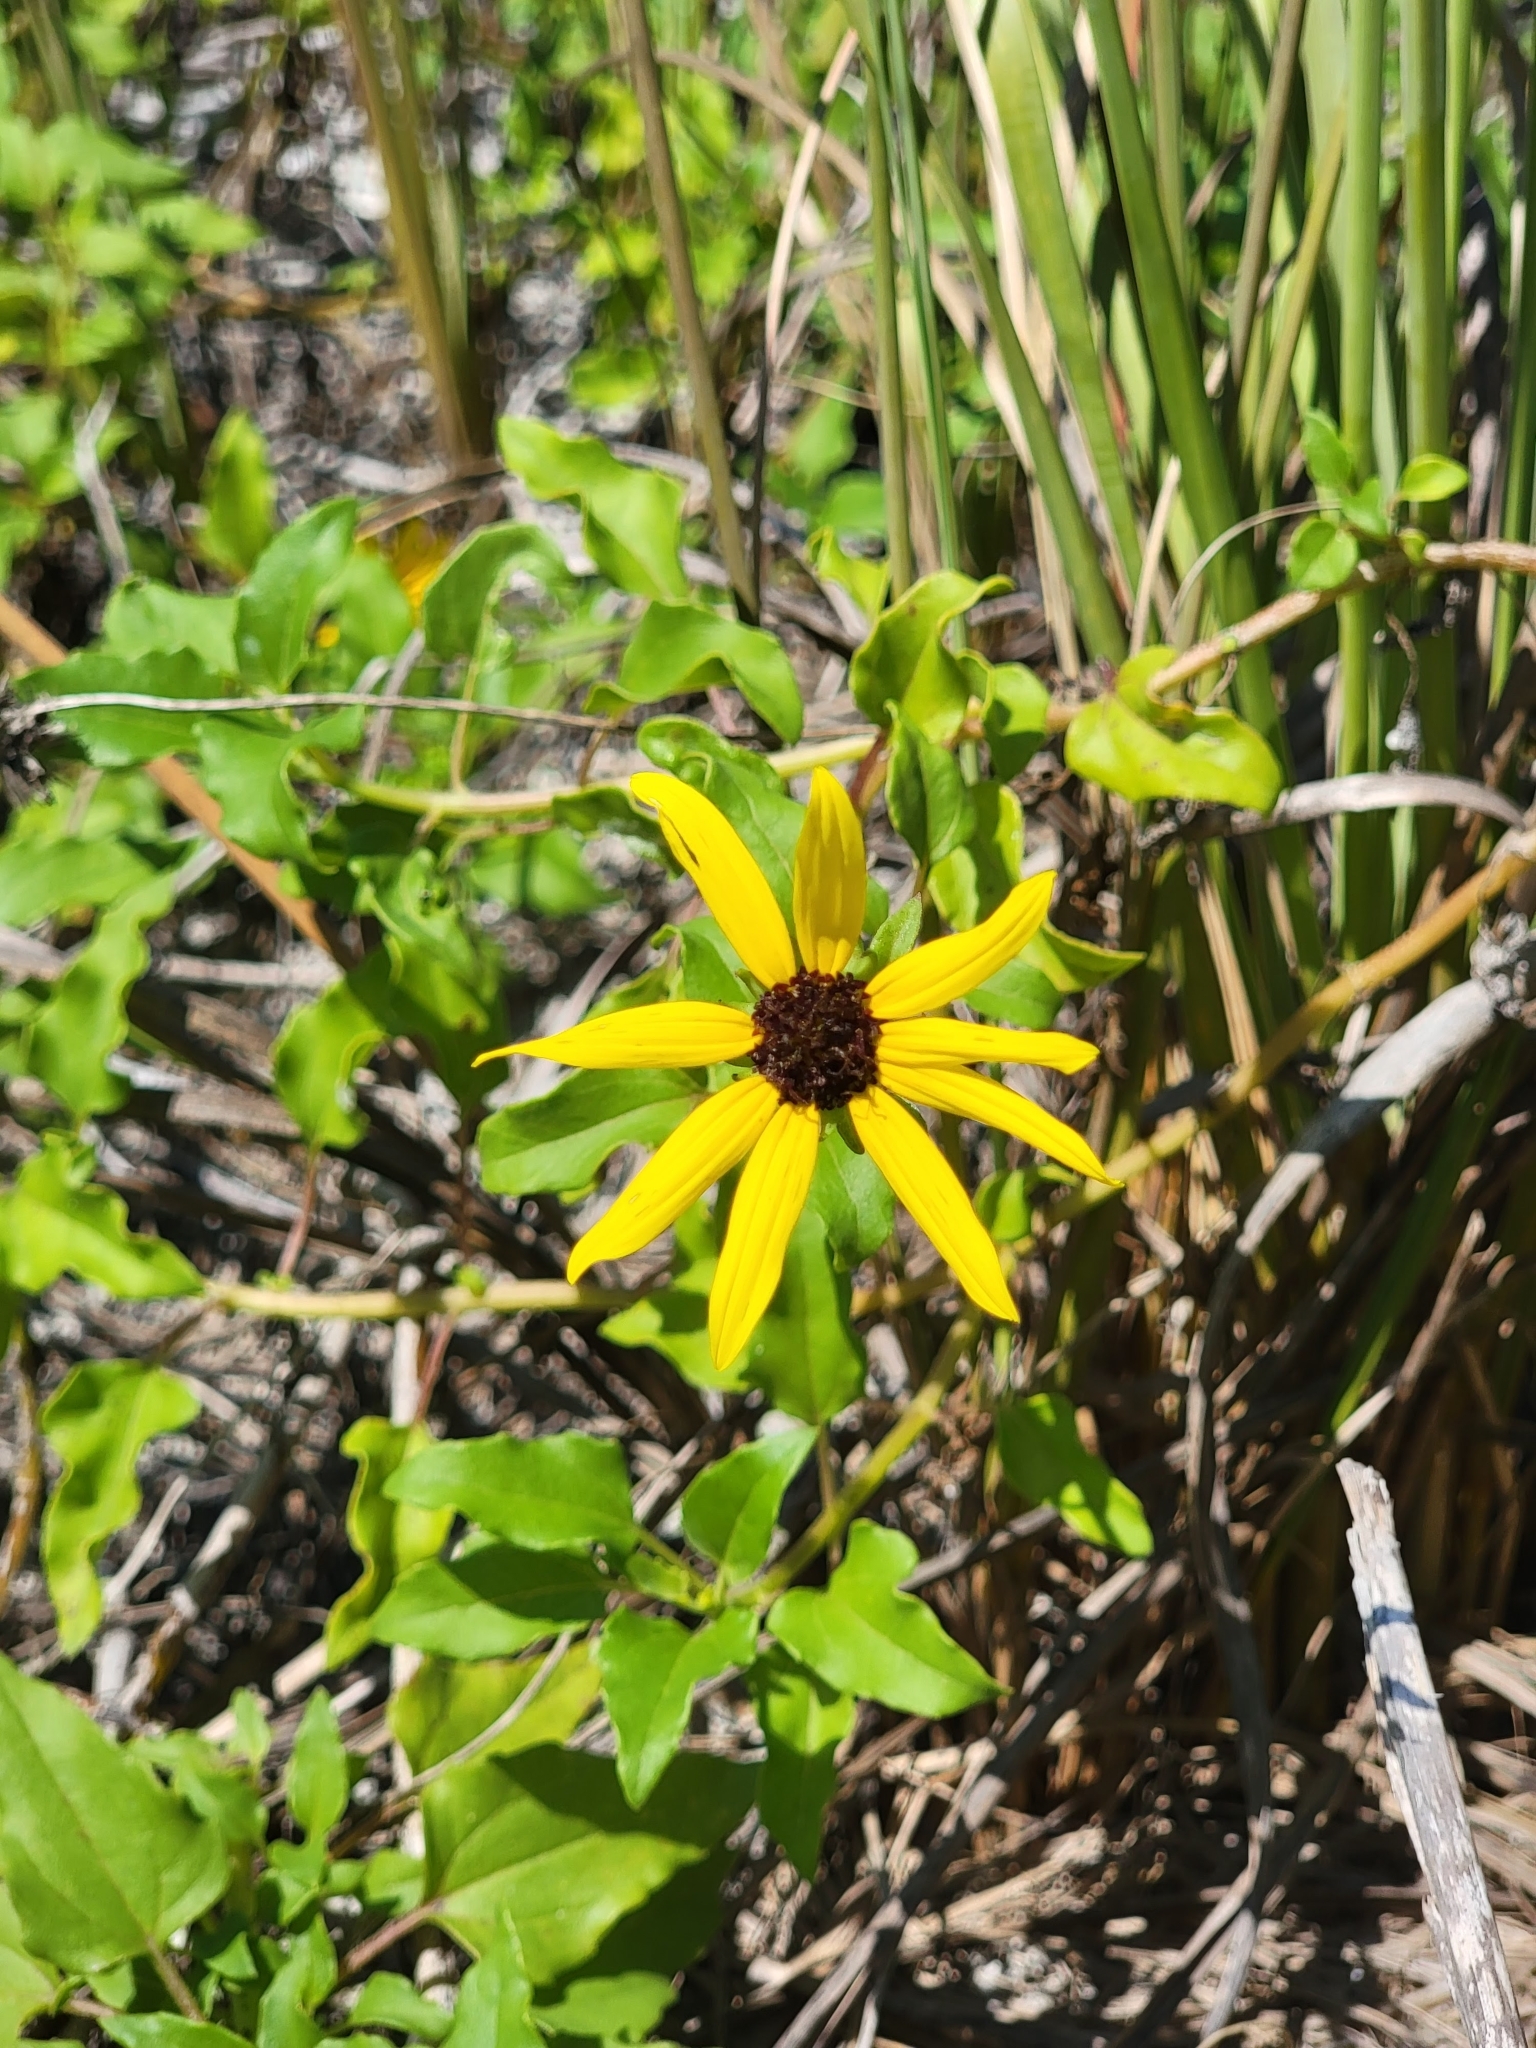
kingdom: Plantae
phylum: Tracheophyta
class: Magnoliopsida
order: Asterales
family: Asteraceae
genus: Helianthus
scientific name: Helianthus debilis
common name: Weak sunflower
